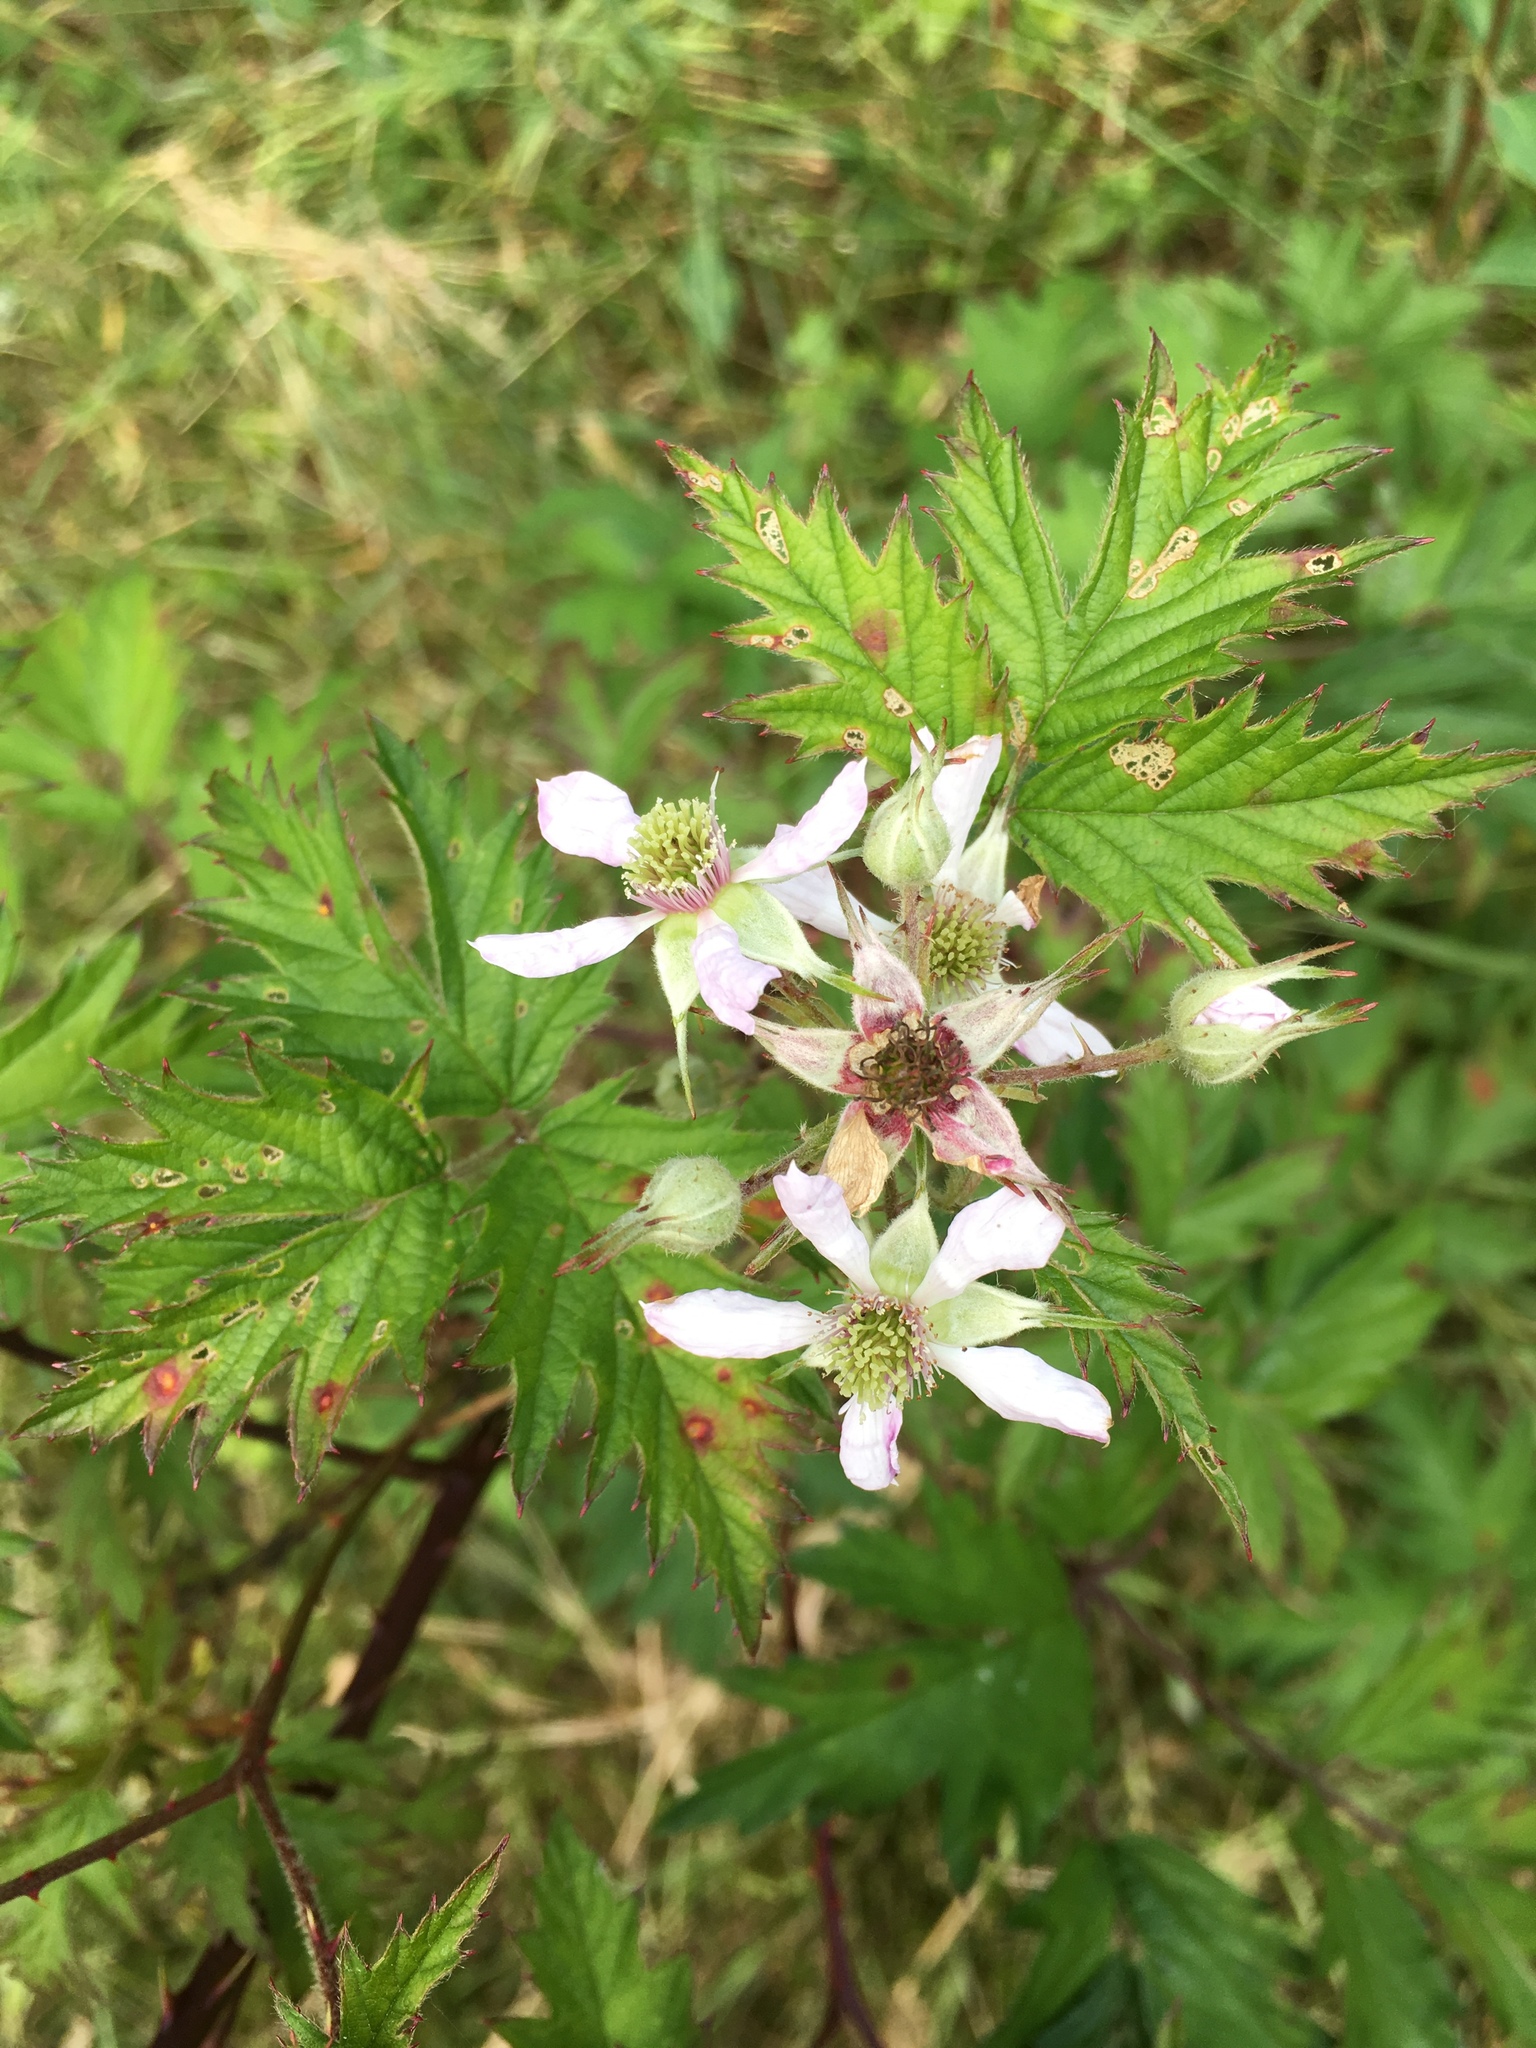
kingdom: Plantae
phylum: Tracheophyta
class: Magnoliopsida
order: Rosales
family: Rosaceae
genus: Rubus
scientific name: Rubus laciniatus
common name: Evergreen blackberry
